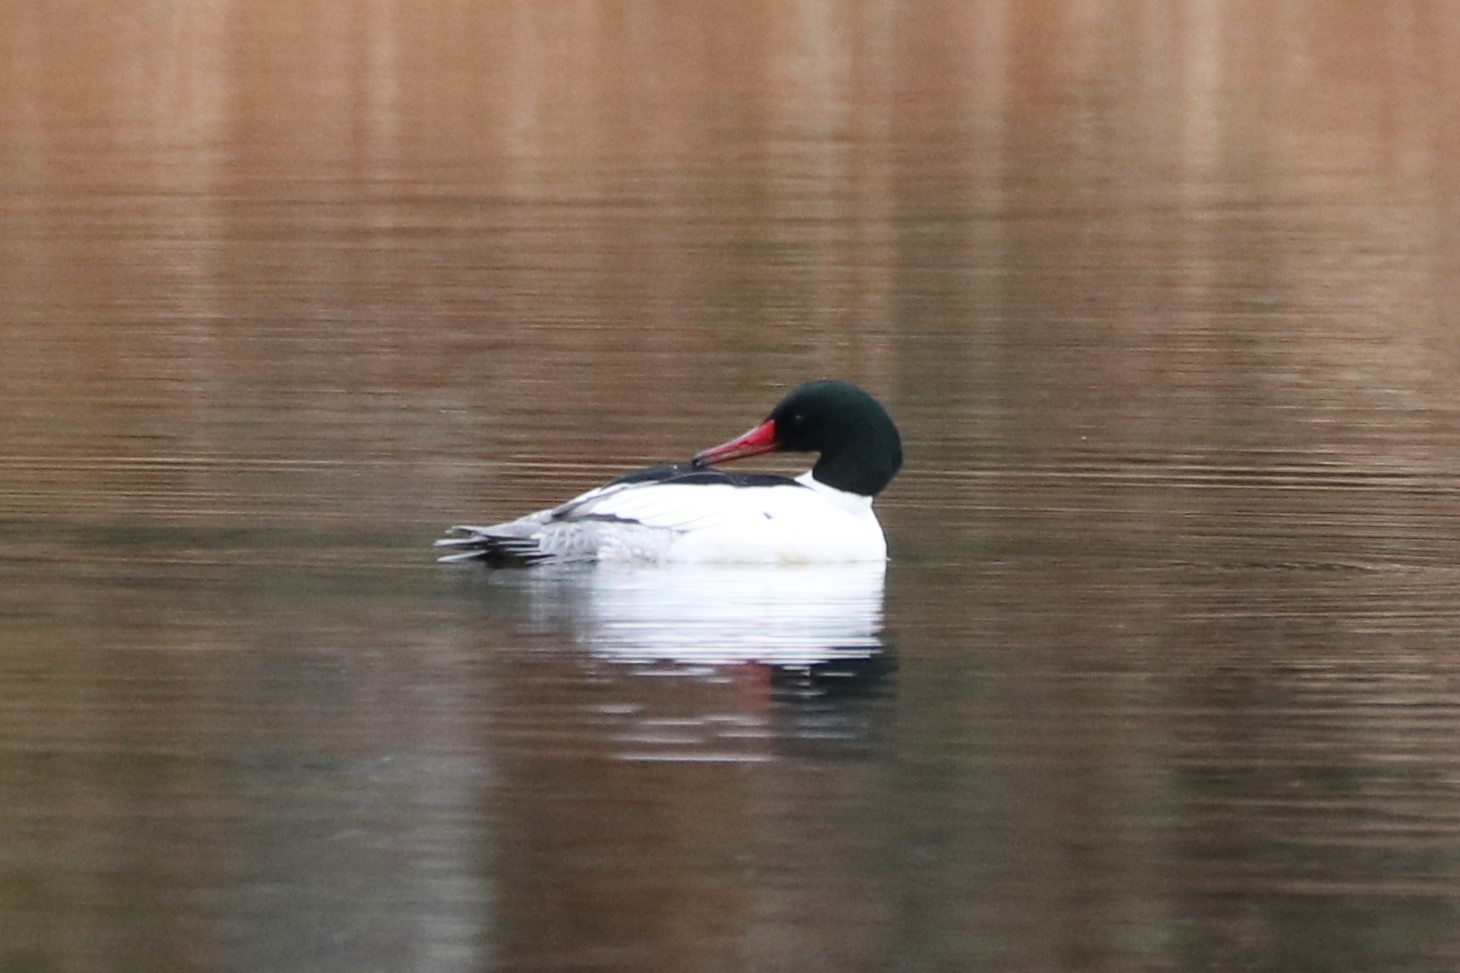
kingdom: Animalia
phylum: Chordata
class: Aves
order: Anseriformes
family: Anatidae
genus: Mergus
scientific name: Mergus merganser
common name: Common merganser
